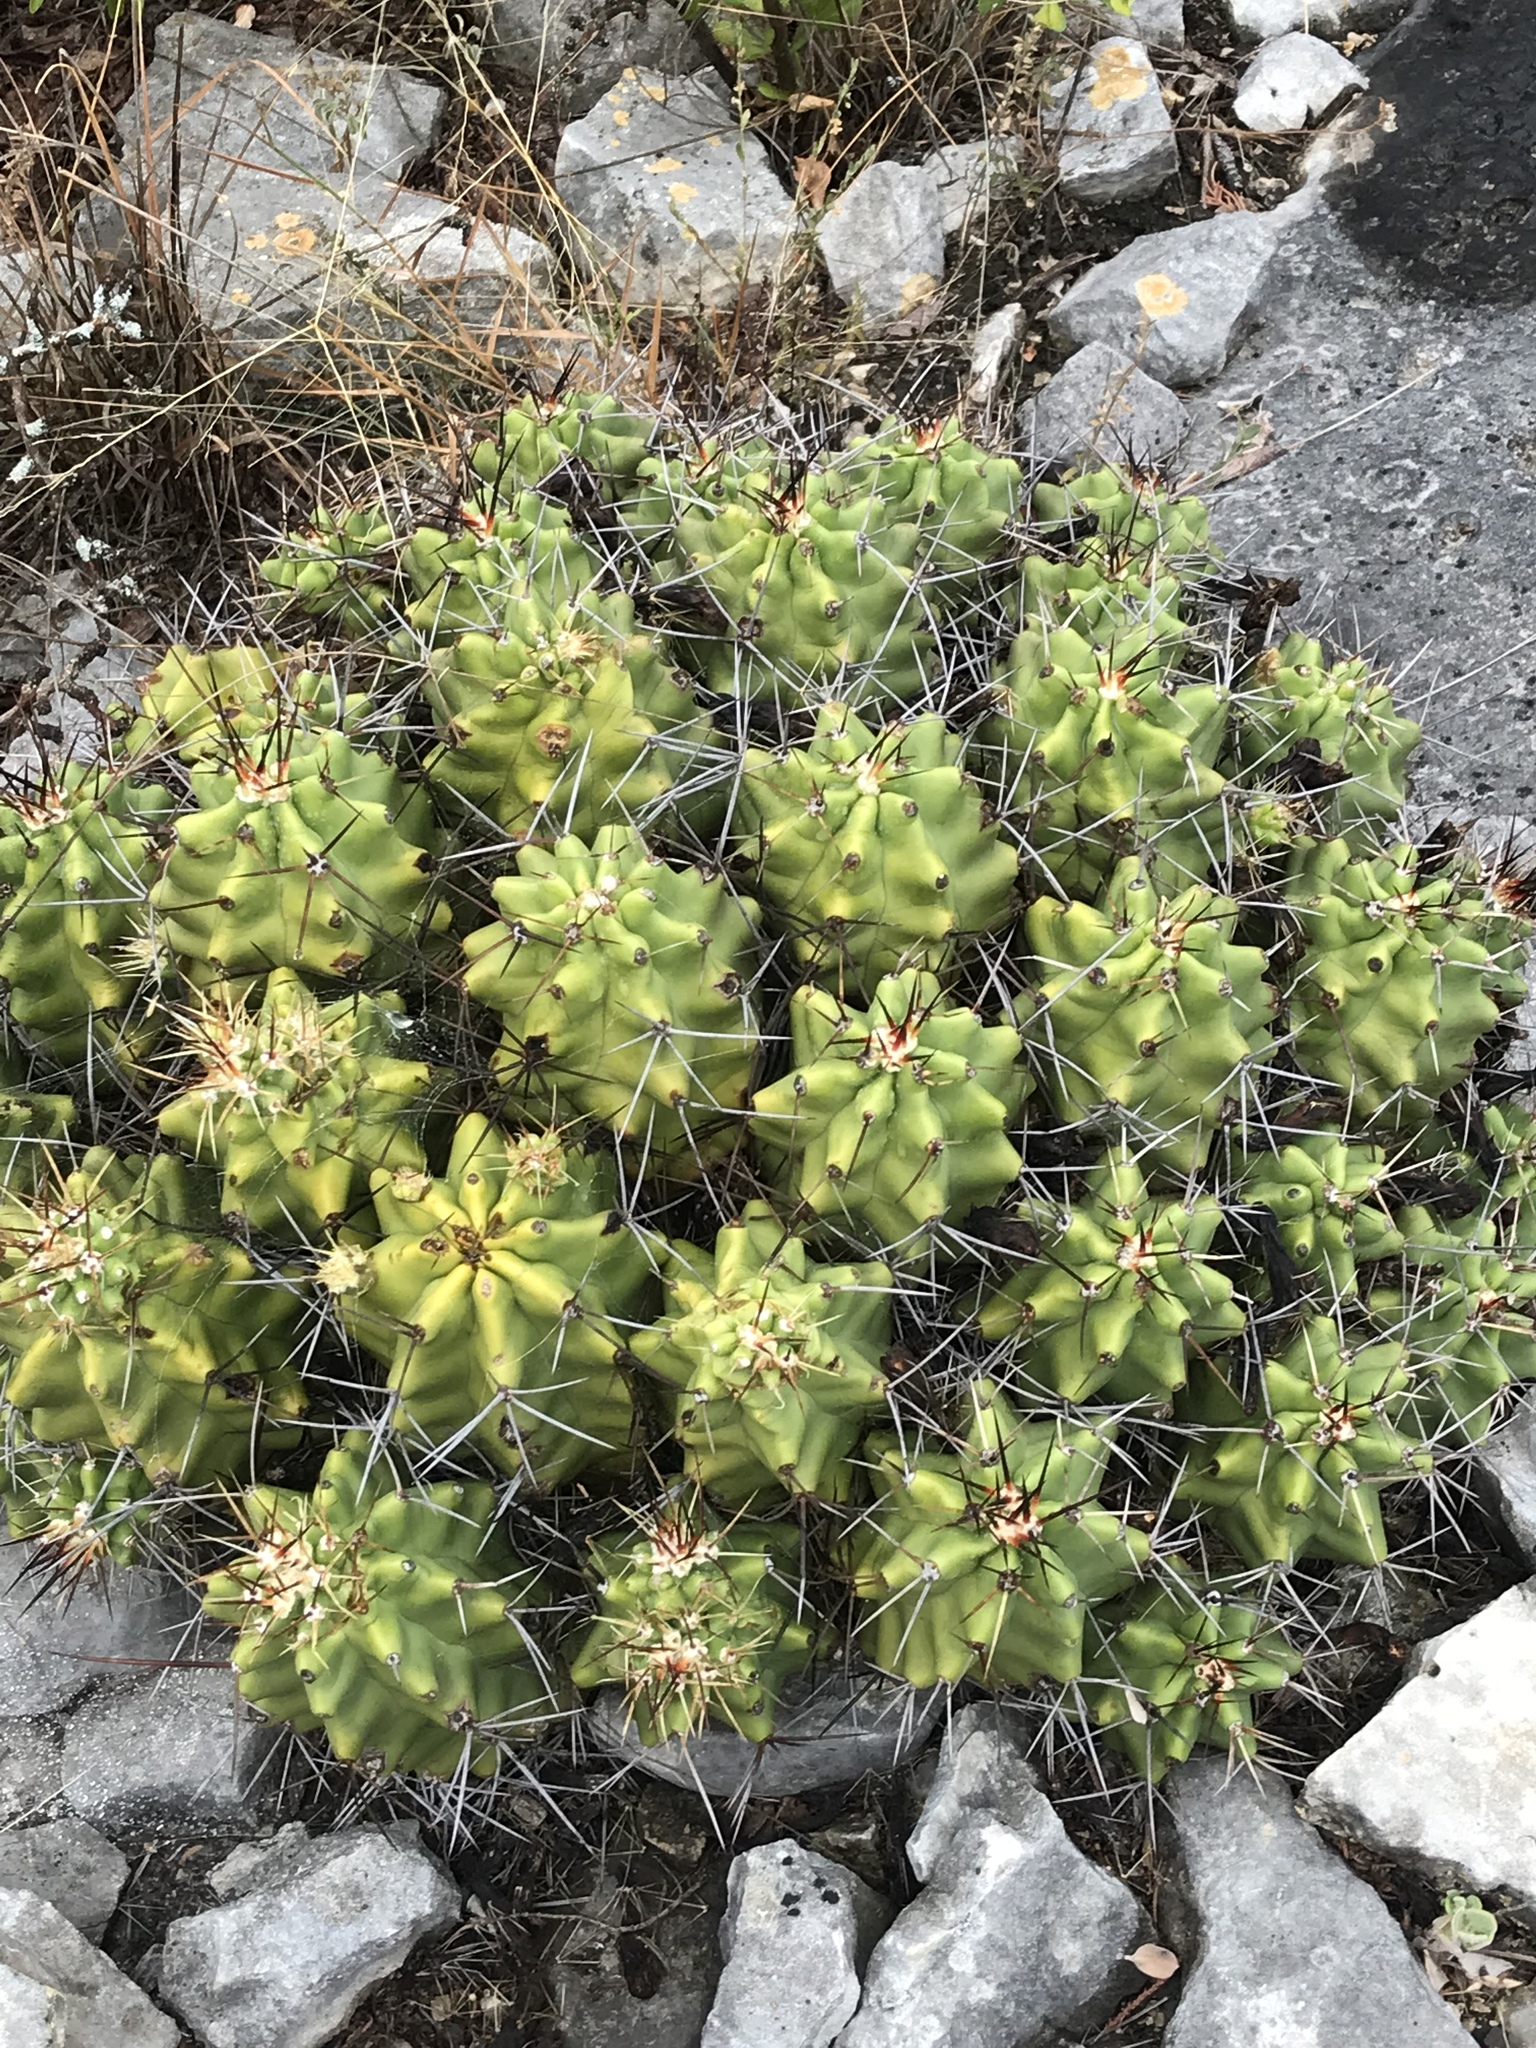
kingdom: Plantae
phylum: Tracheophyta
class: Magnoliopsida
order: Caryophyllales
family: Cactaceae
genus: Echinocereus
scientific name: Echinocereus coccineus
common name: Scarlet hedgehog cactus
